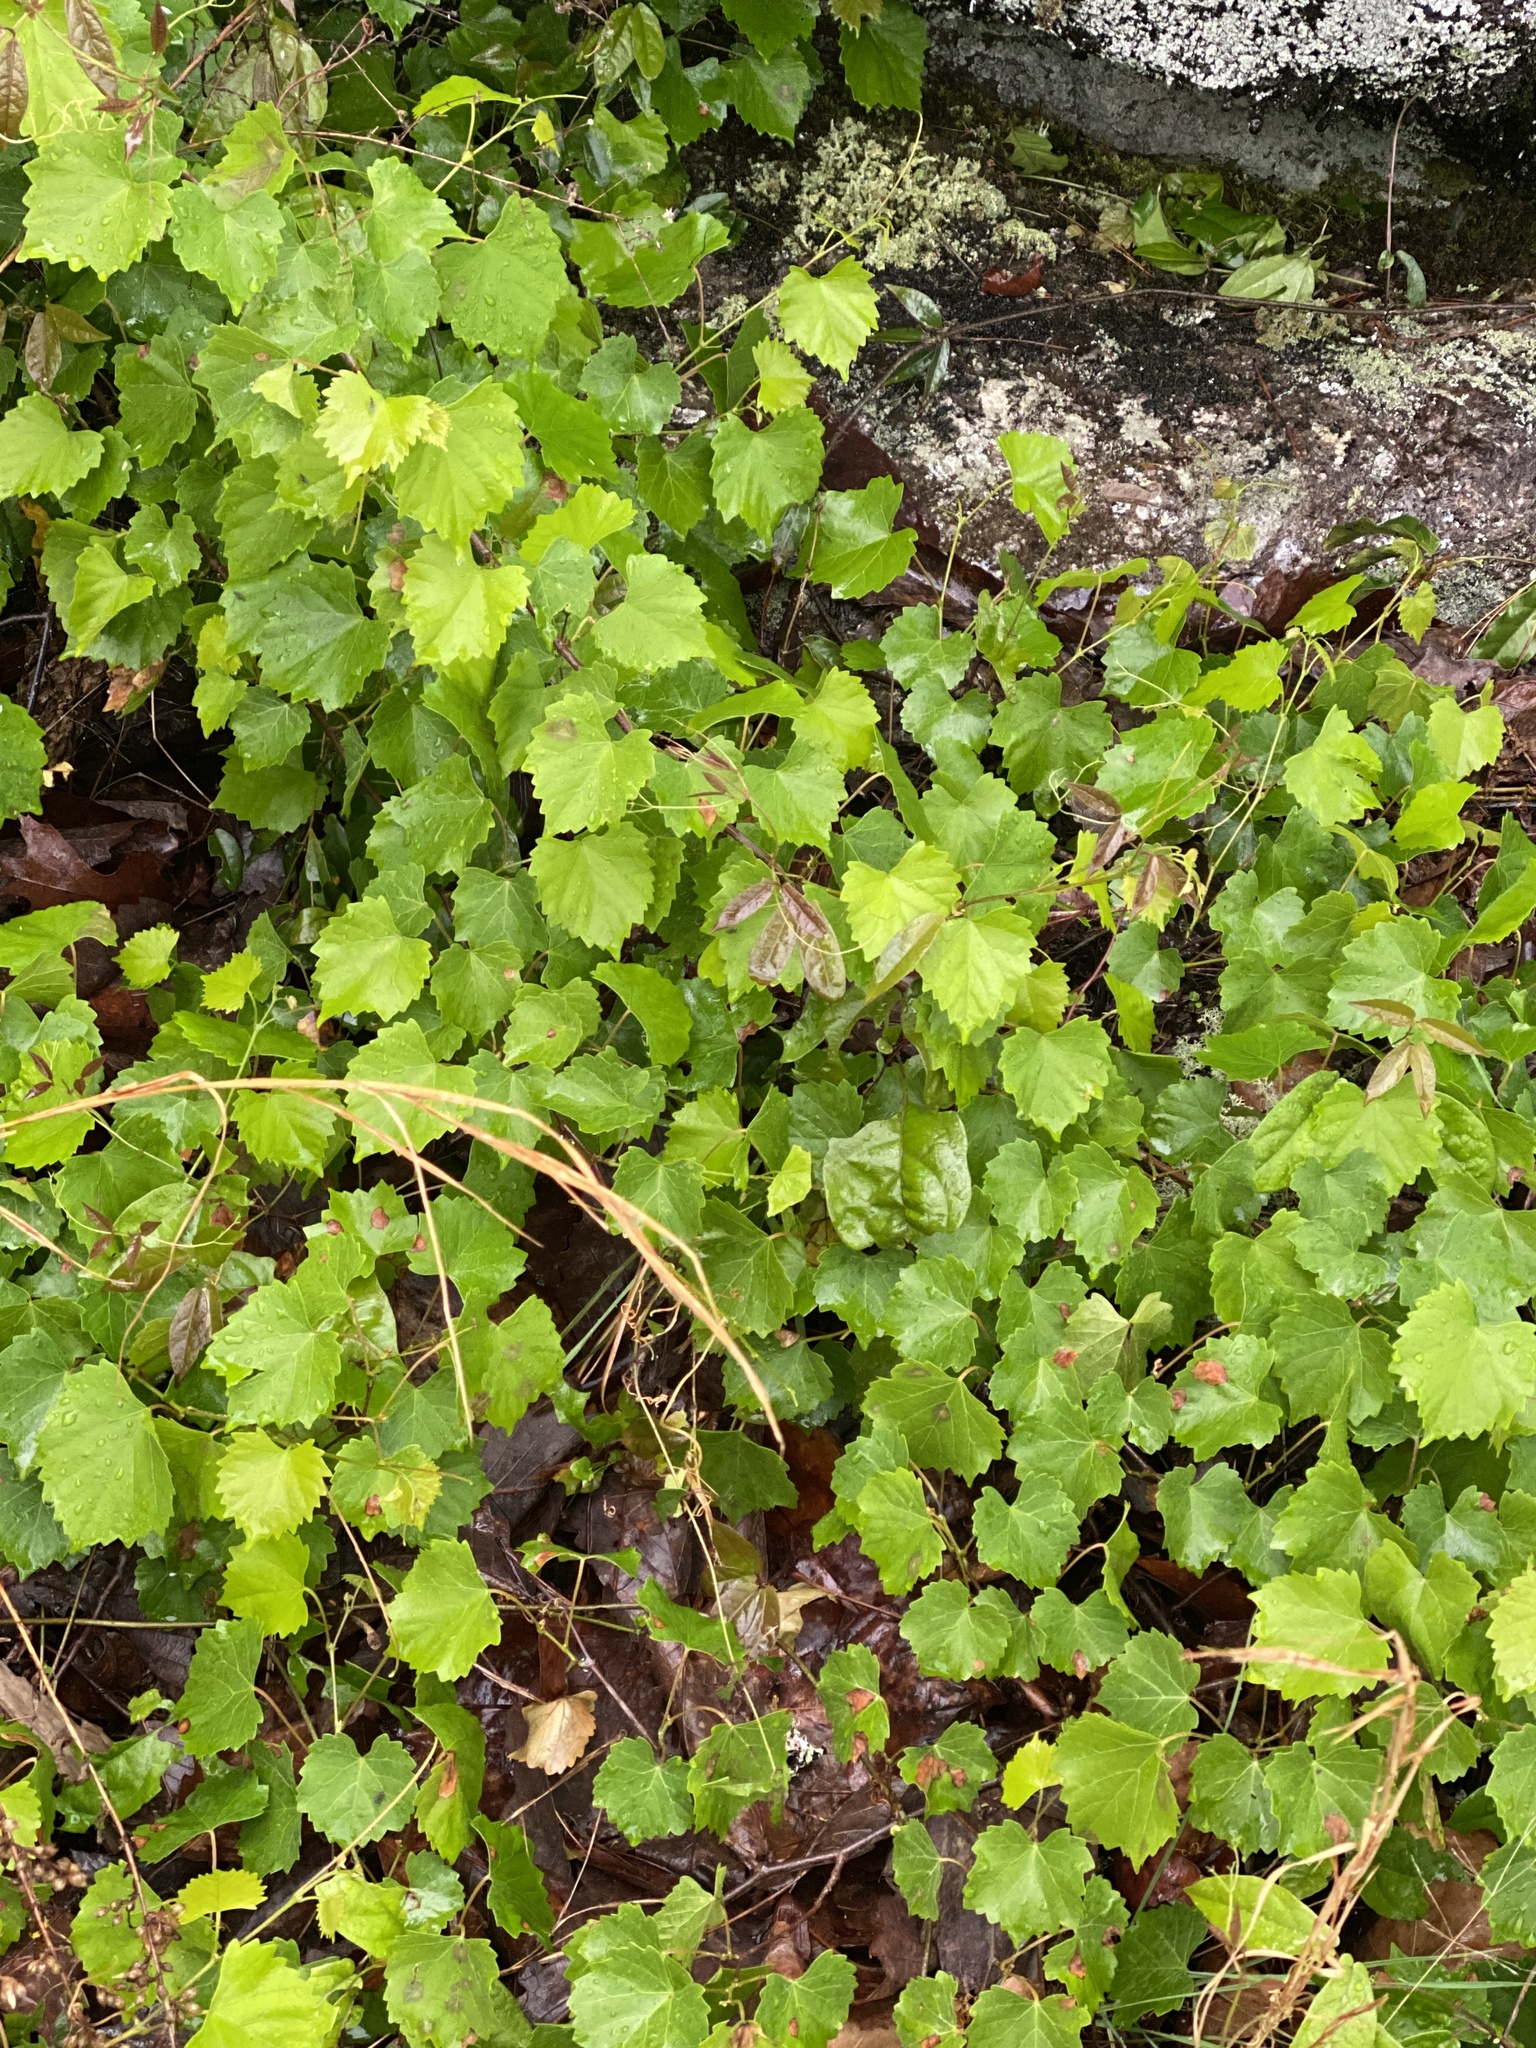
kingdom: Plantae
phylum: Tracheophyta
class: Magnoliopsida
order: Vitales
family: Vitaceae
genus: Vitis
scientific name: Vitis rotundifolia
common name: Muscadine grape
